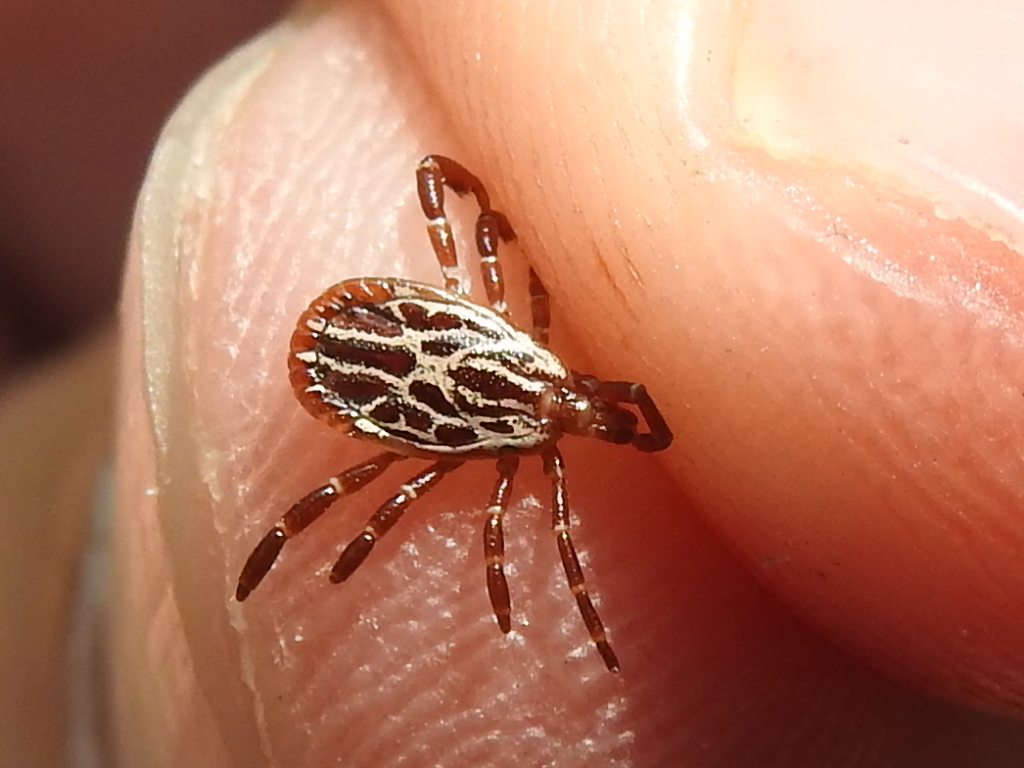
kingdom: Animalia
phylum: Arthropoda
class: Arachnida
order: Ixodida
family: Ixodidae
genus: Amblyomma
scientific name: Amblyomma maculatum
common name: Gulf coast tick
